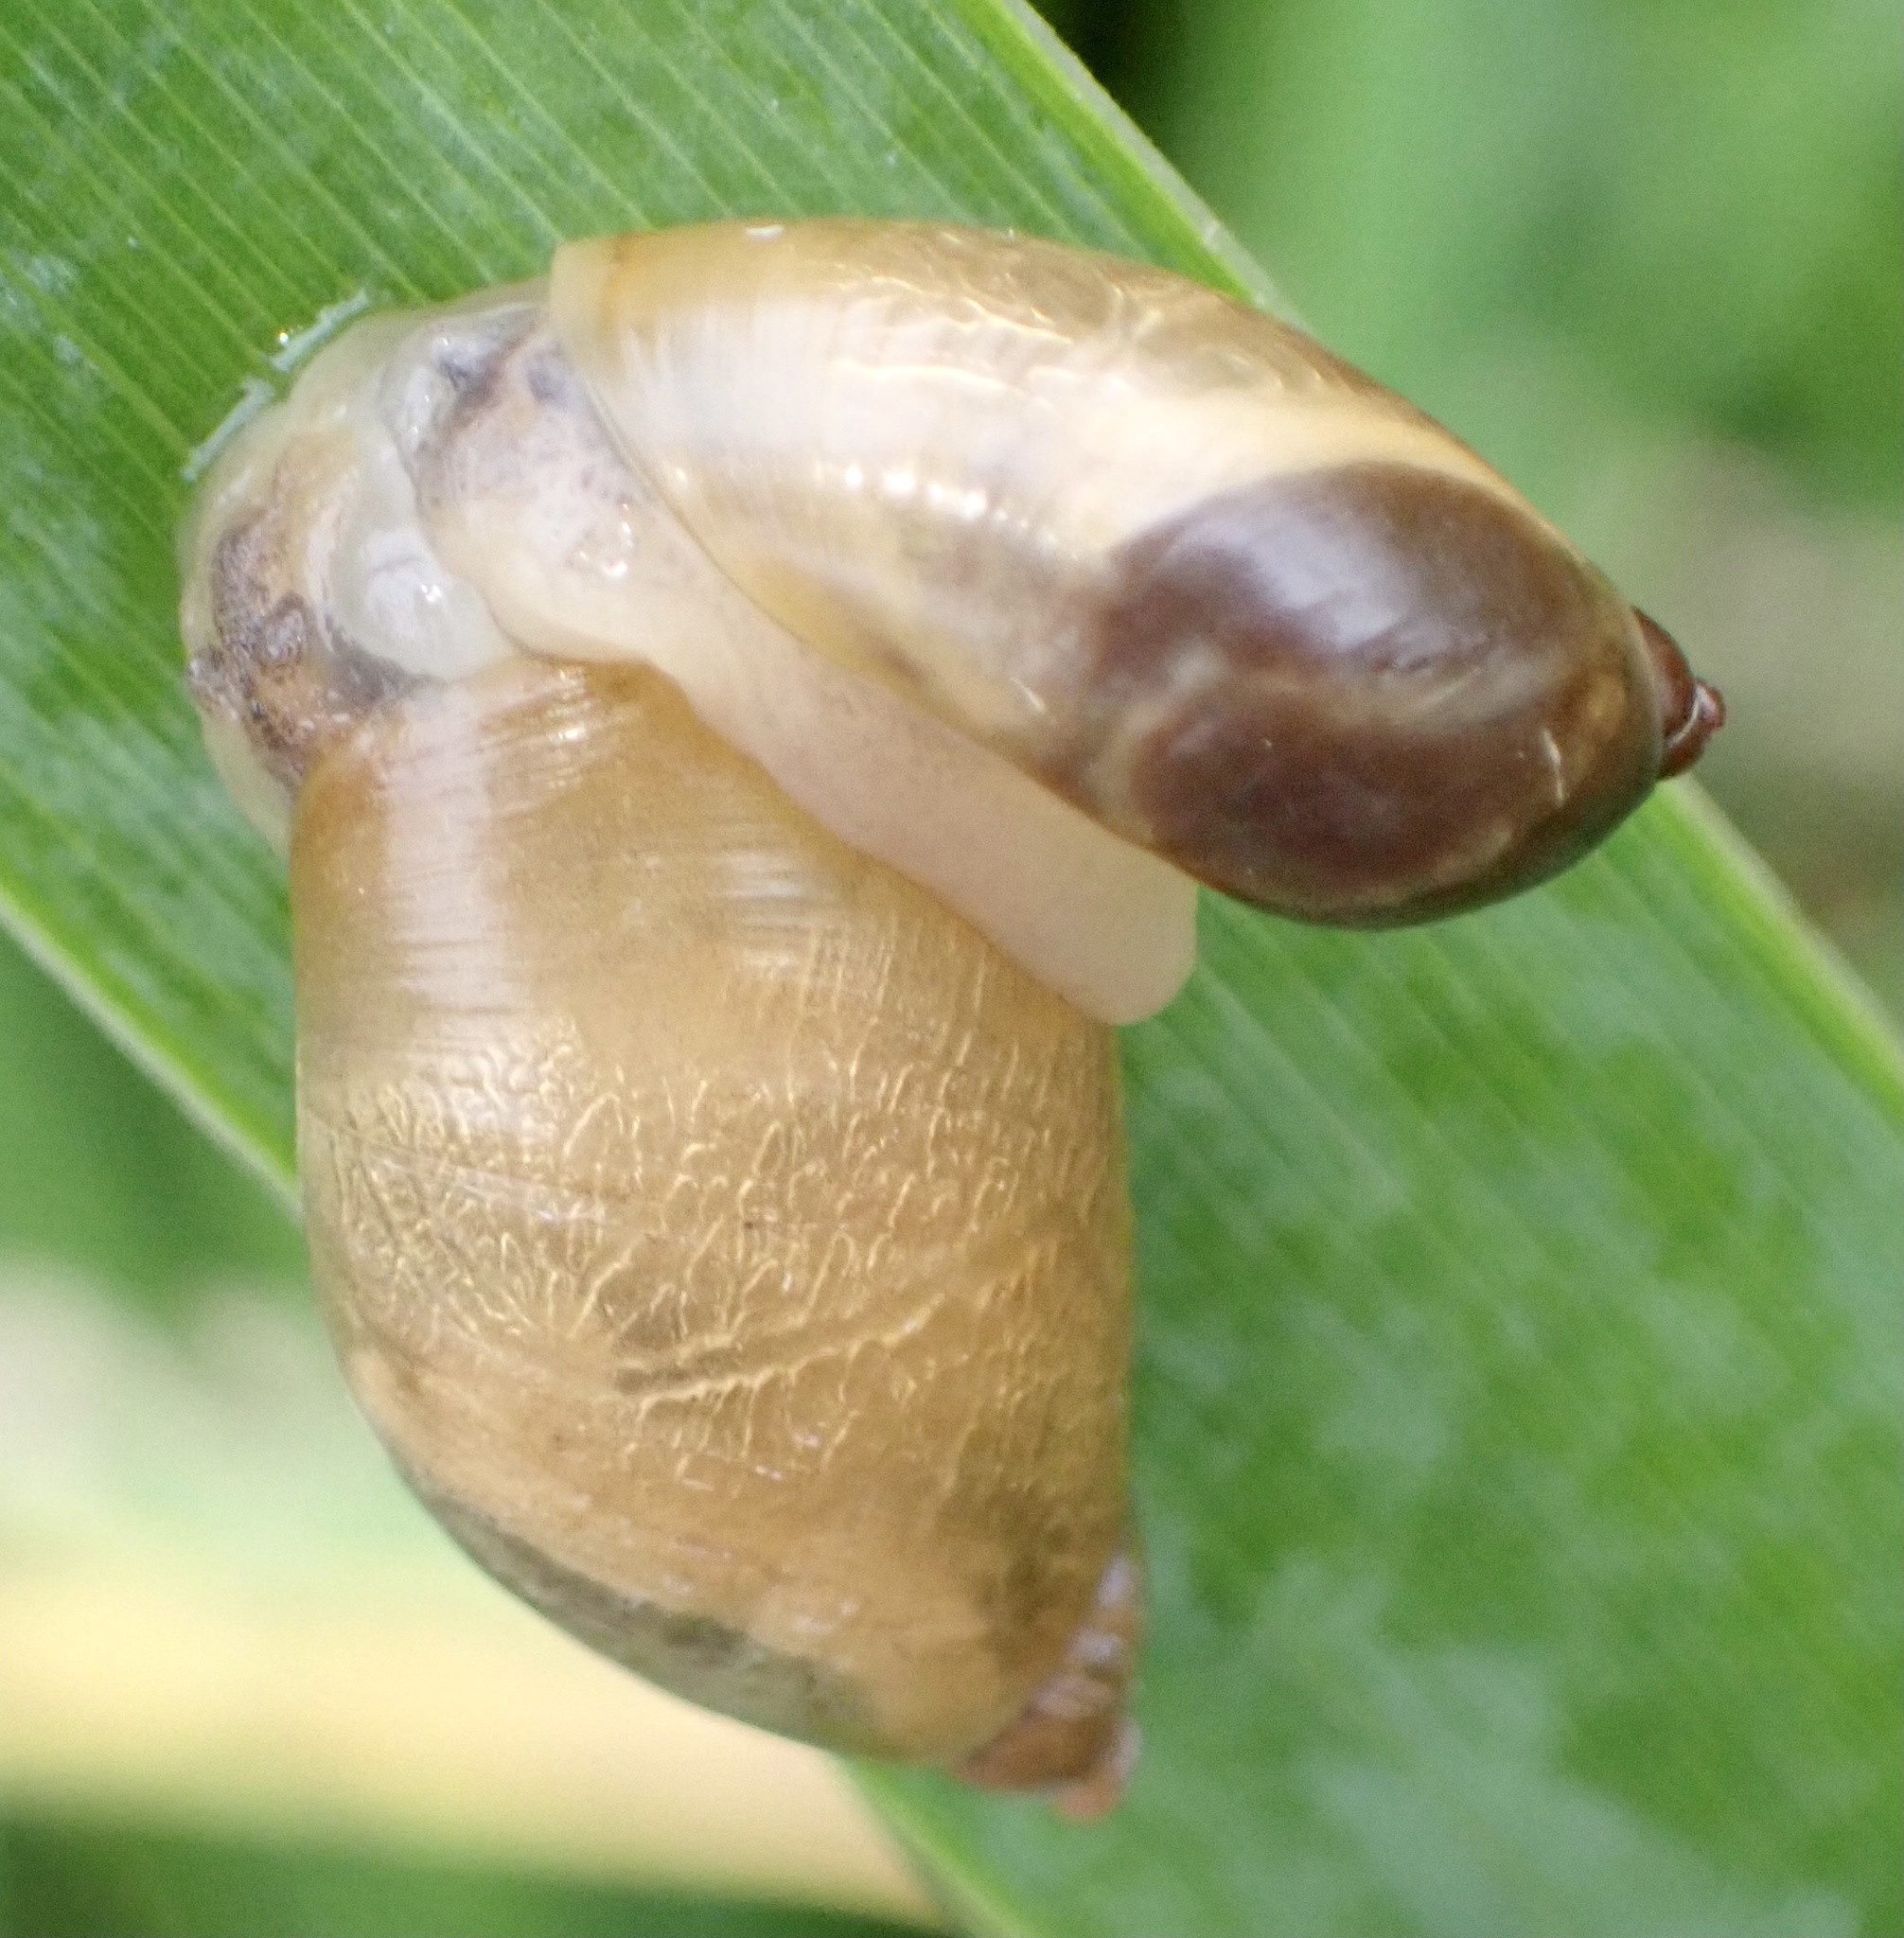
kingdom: Animalia
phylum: Mollusca
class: Gastropoda
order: Stylommatophora
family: Succineidae
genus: Succinea
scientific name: Succinea putris
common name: European ambersnail
